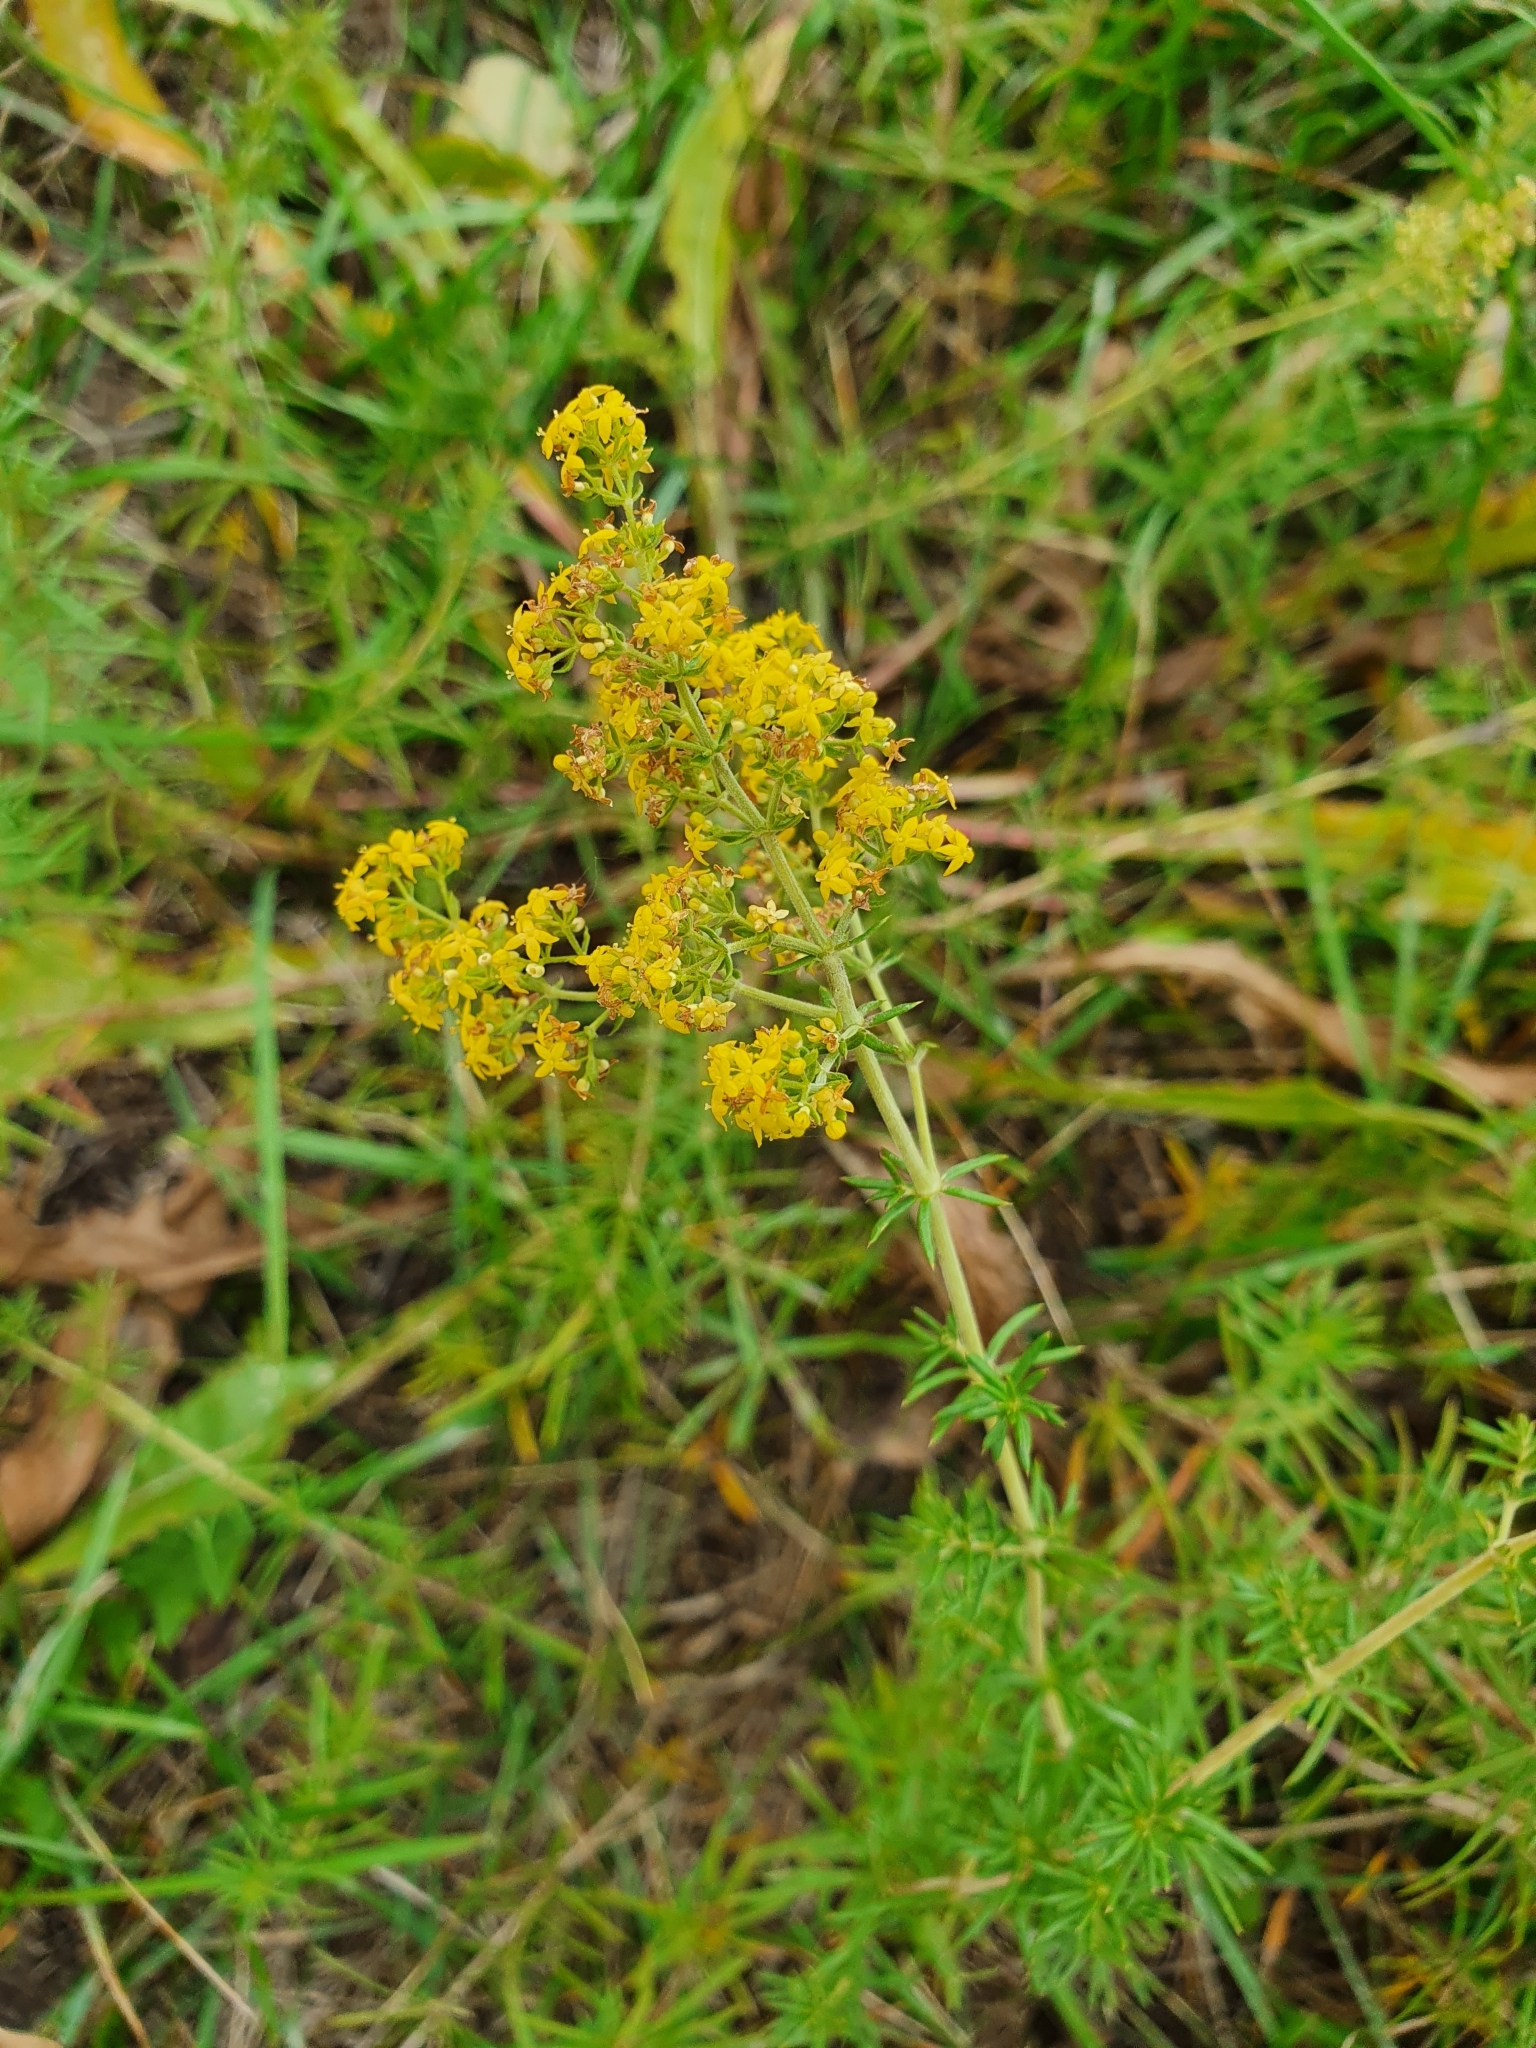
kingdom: Plantae
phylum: Tracheophyta
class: Magnoliopsida
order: Gentianales
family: Rubiaceae
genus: Galium
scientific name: Galium verum
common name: Lady's bedstraw
